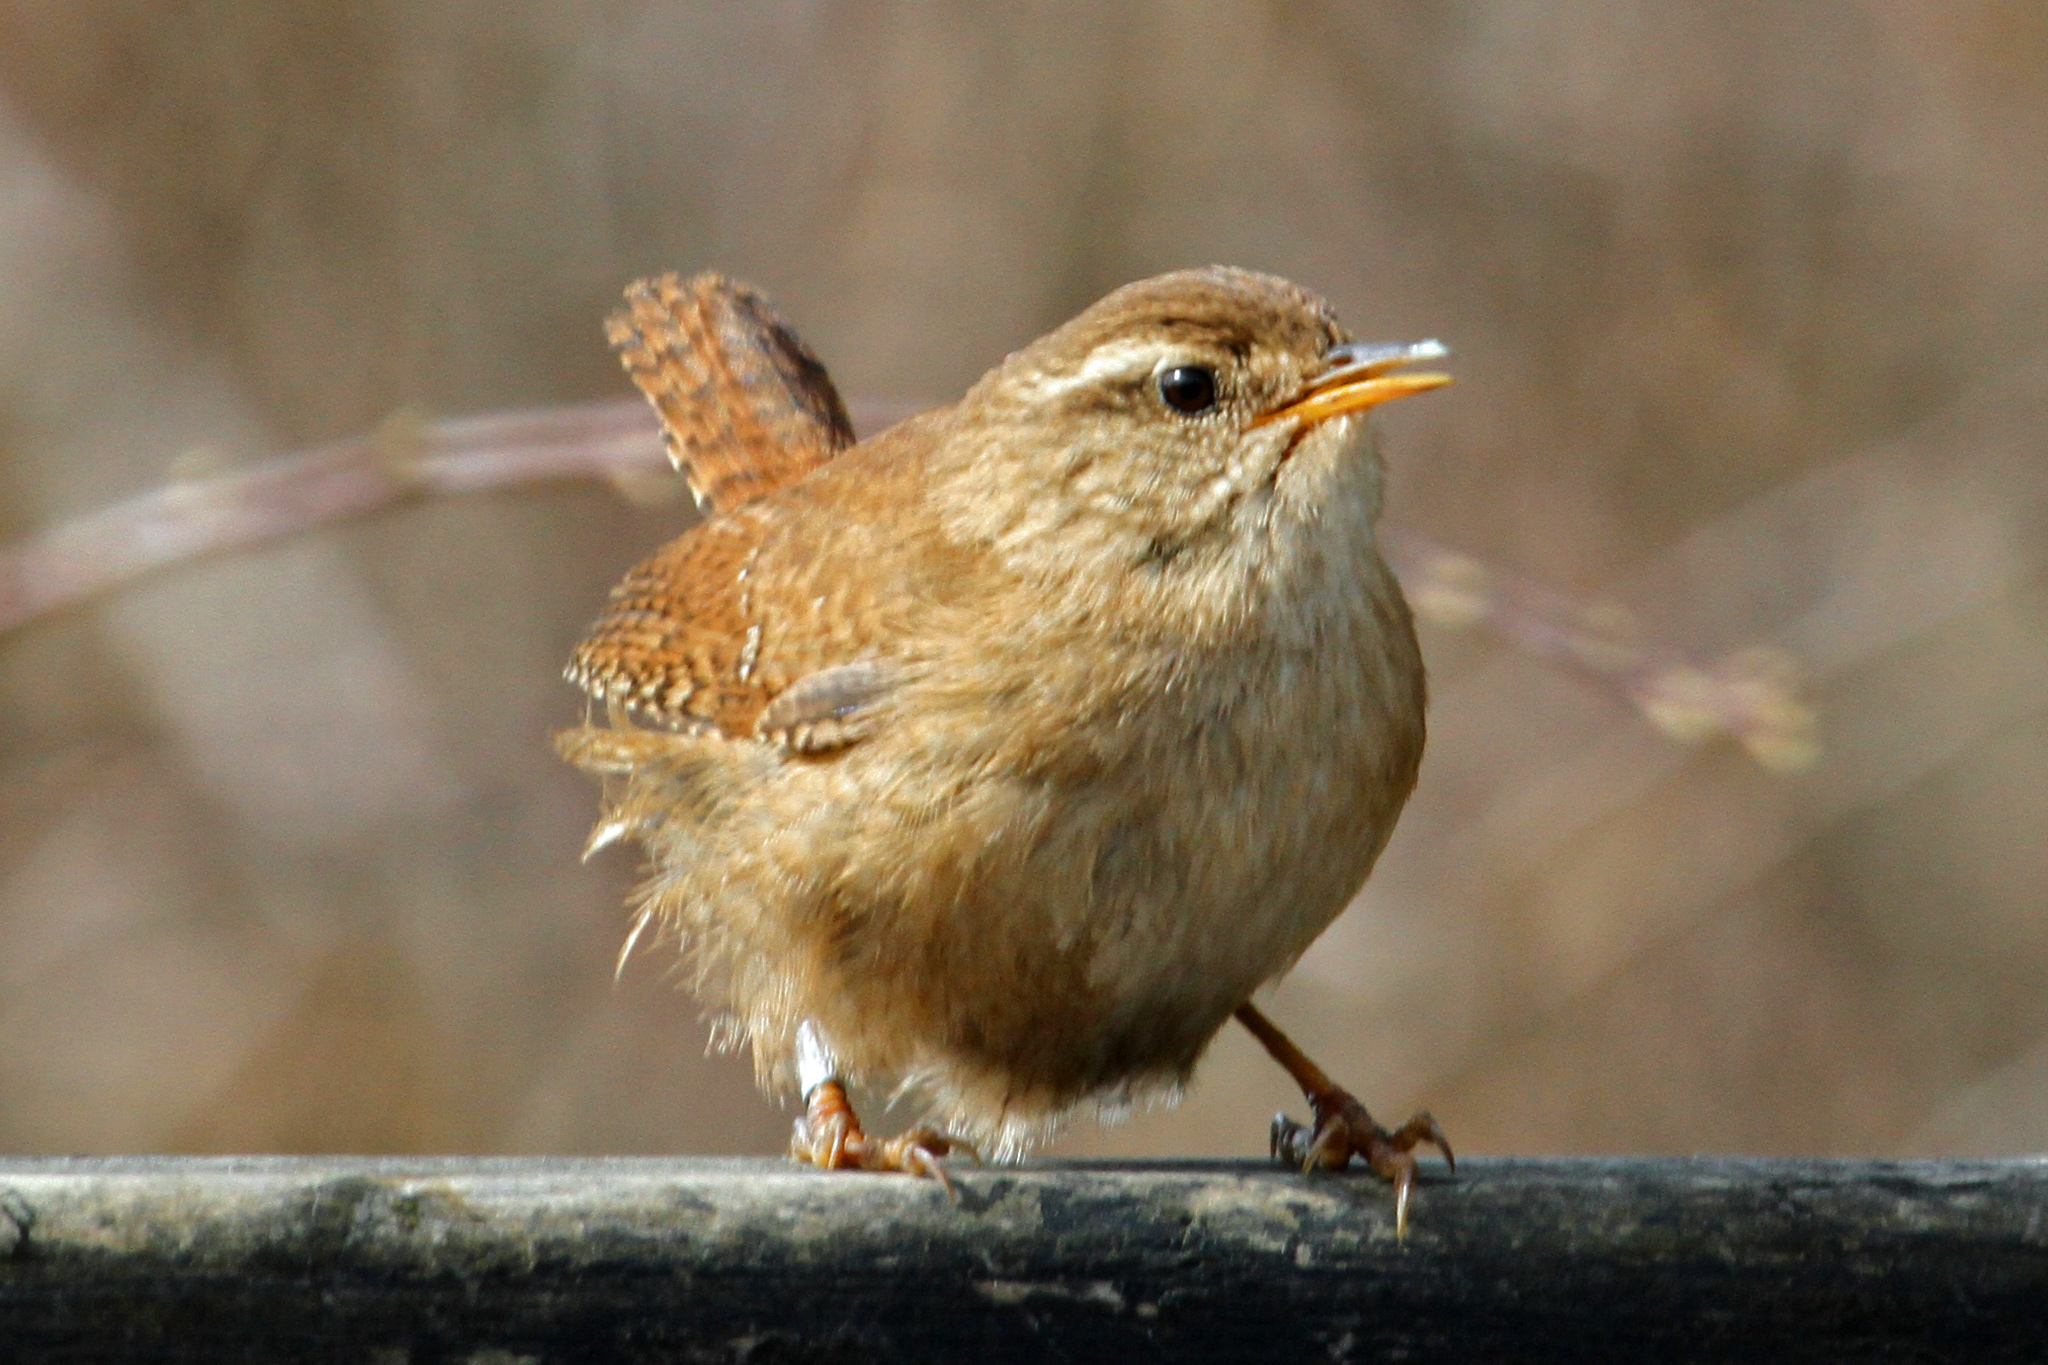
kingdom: Animalia
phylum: Chordata
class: Aves
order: Passeriformes
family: Troglodytidae
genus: Troglodytes
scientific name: Troglodytes troglodytes
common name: Eurasian wren
